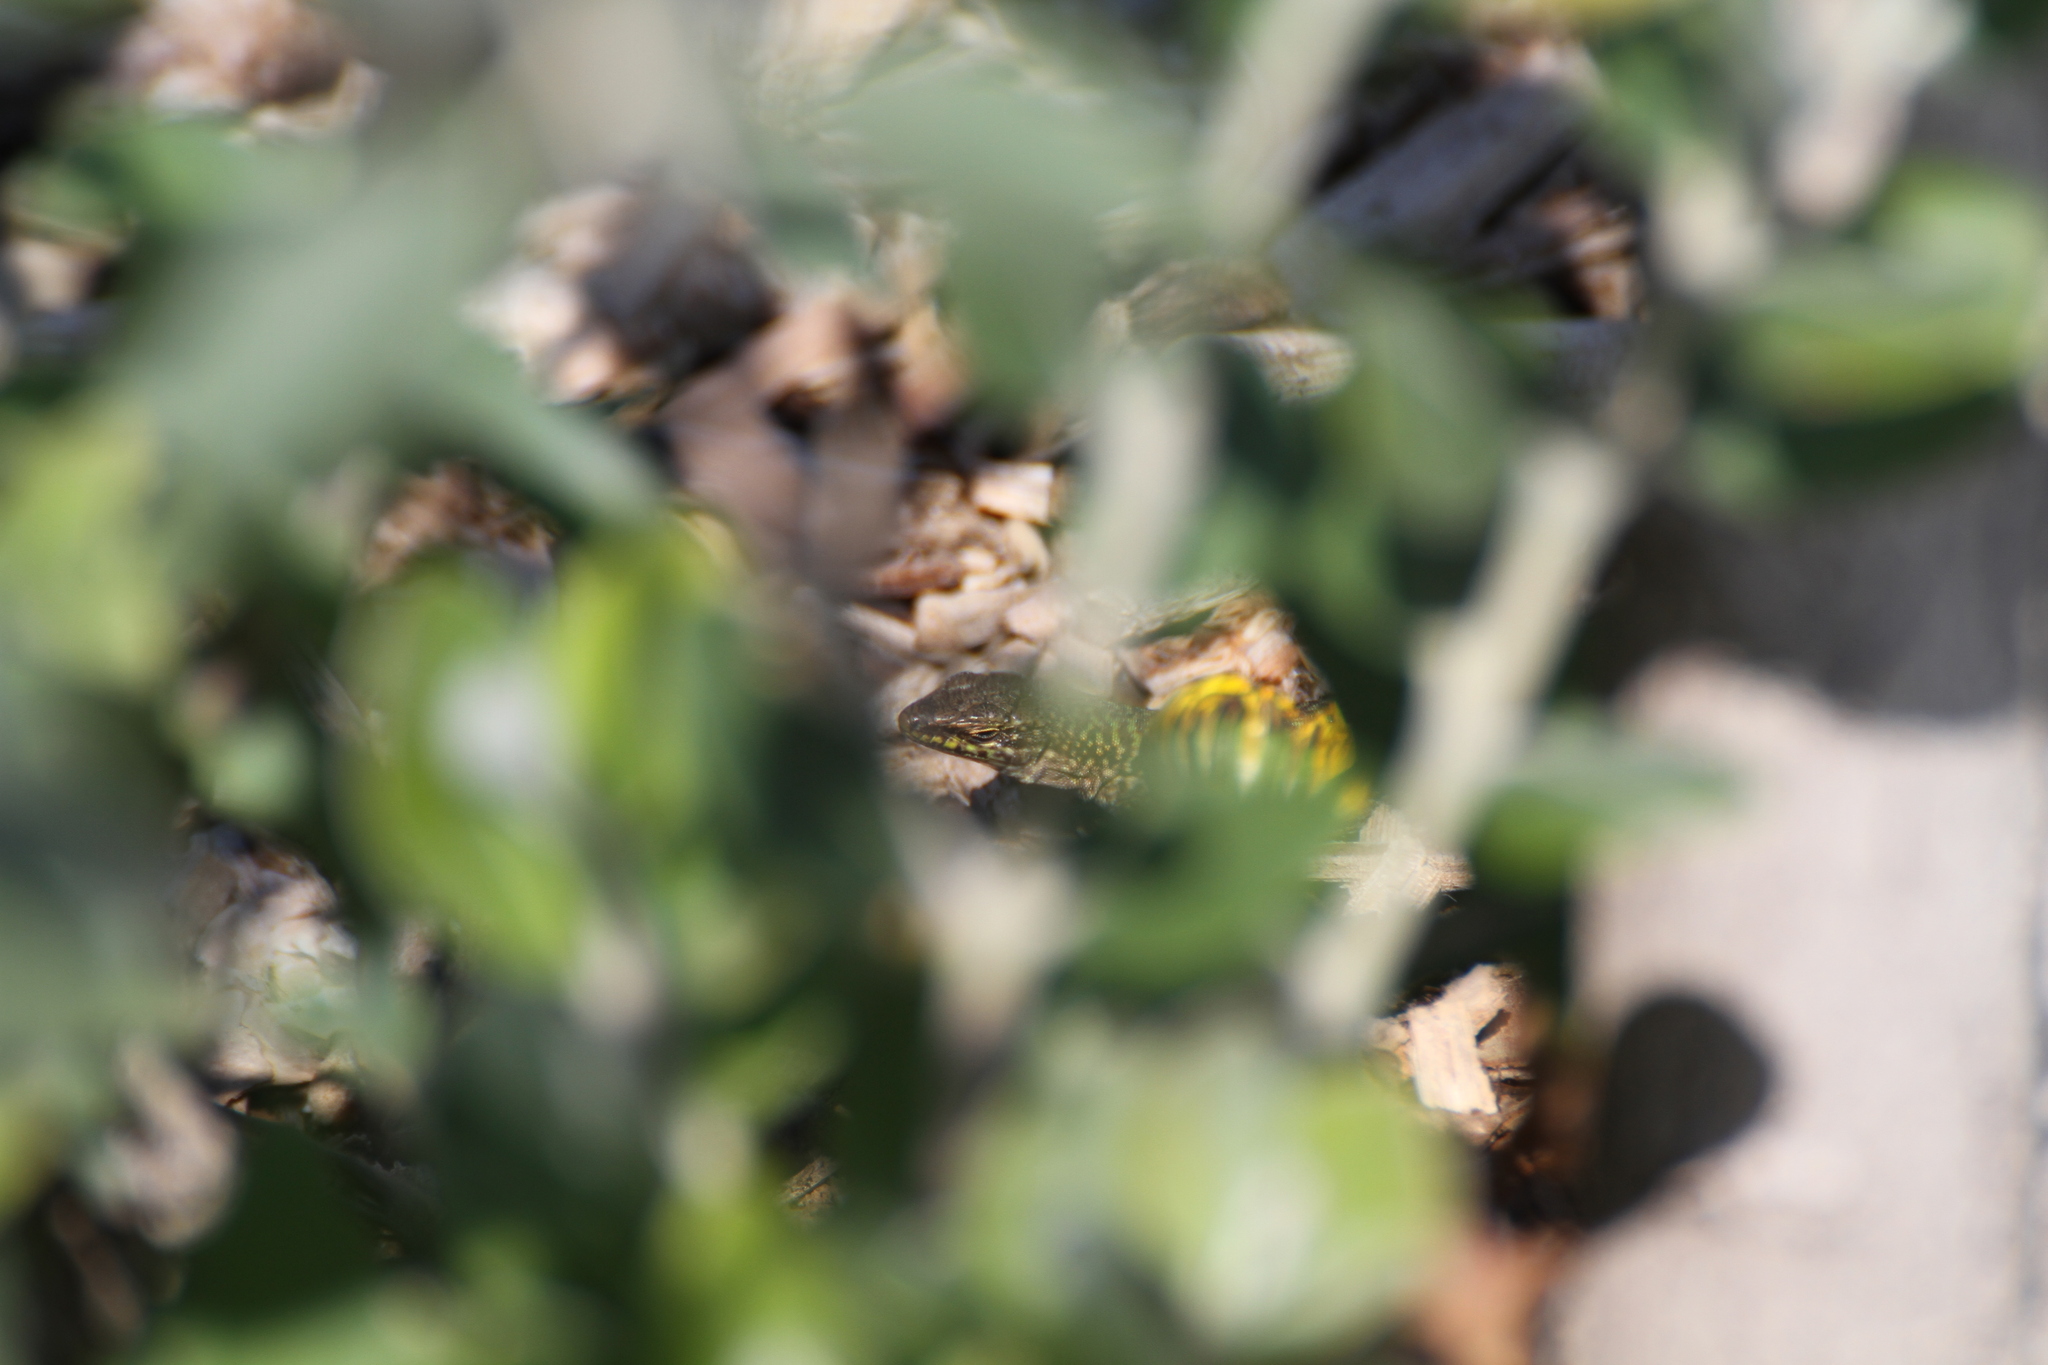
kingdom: Animalia
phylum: Chordata
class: Squamata
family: Lacertidae
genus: Podarcis
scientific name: Podarcis siculus
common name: Italian wall lizard
